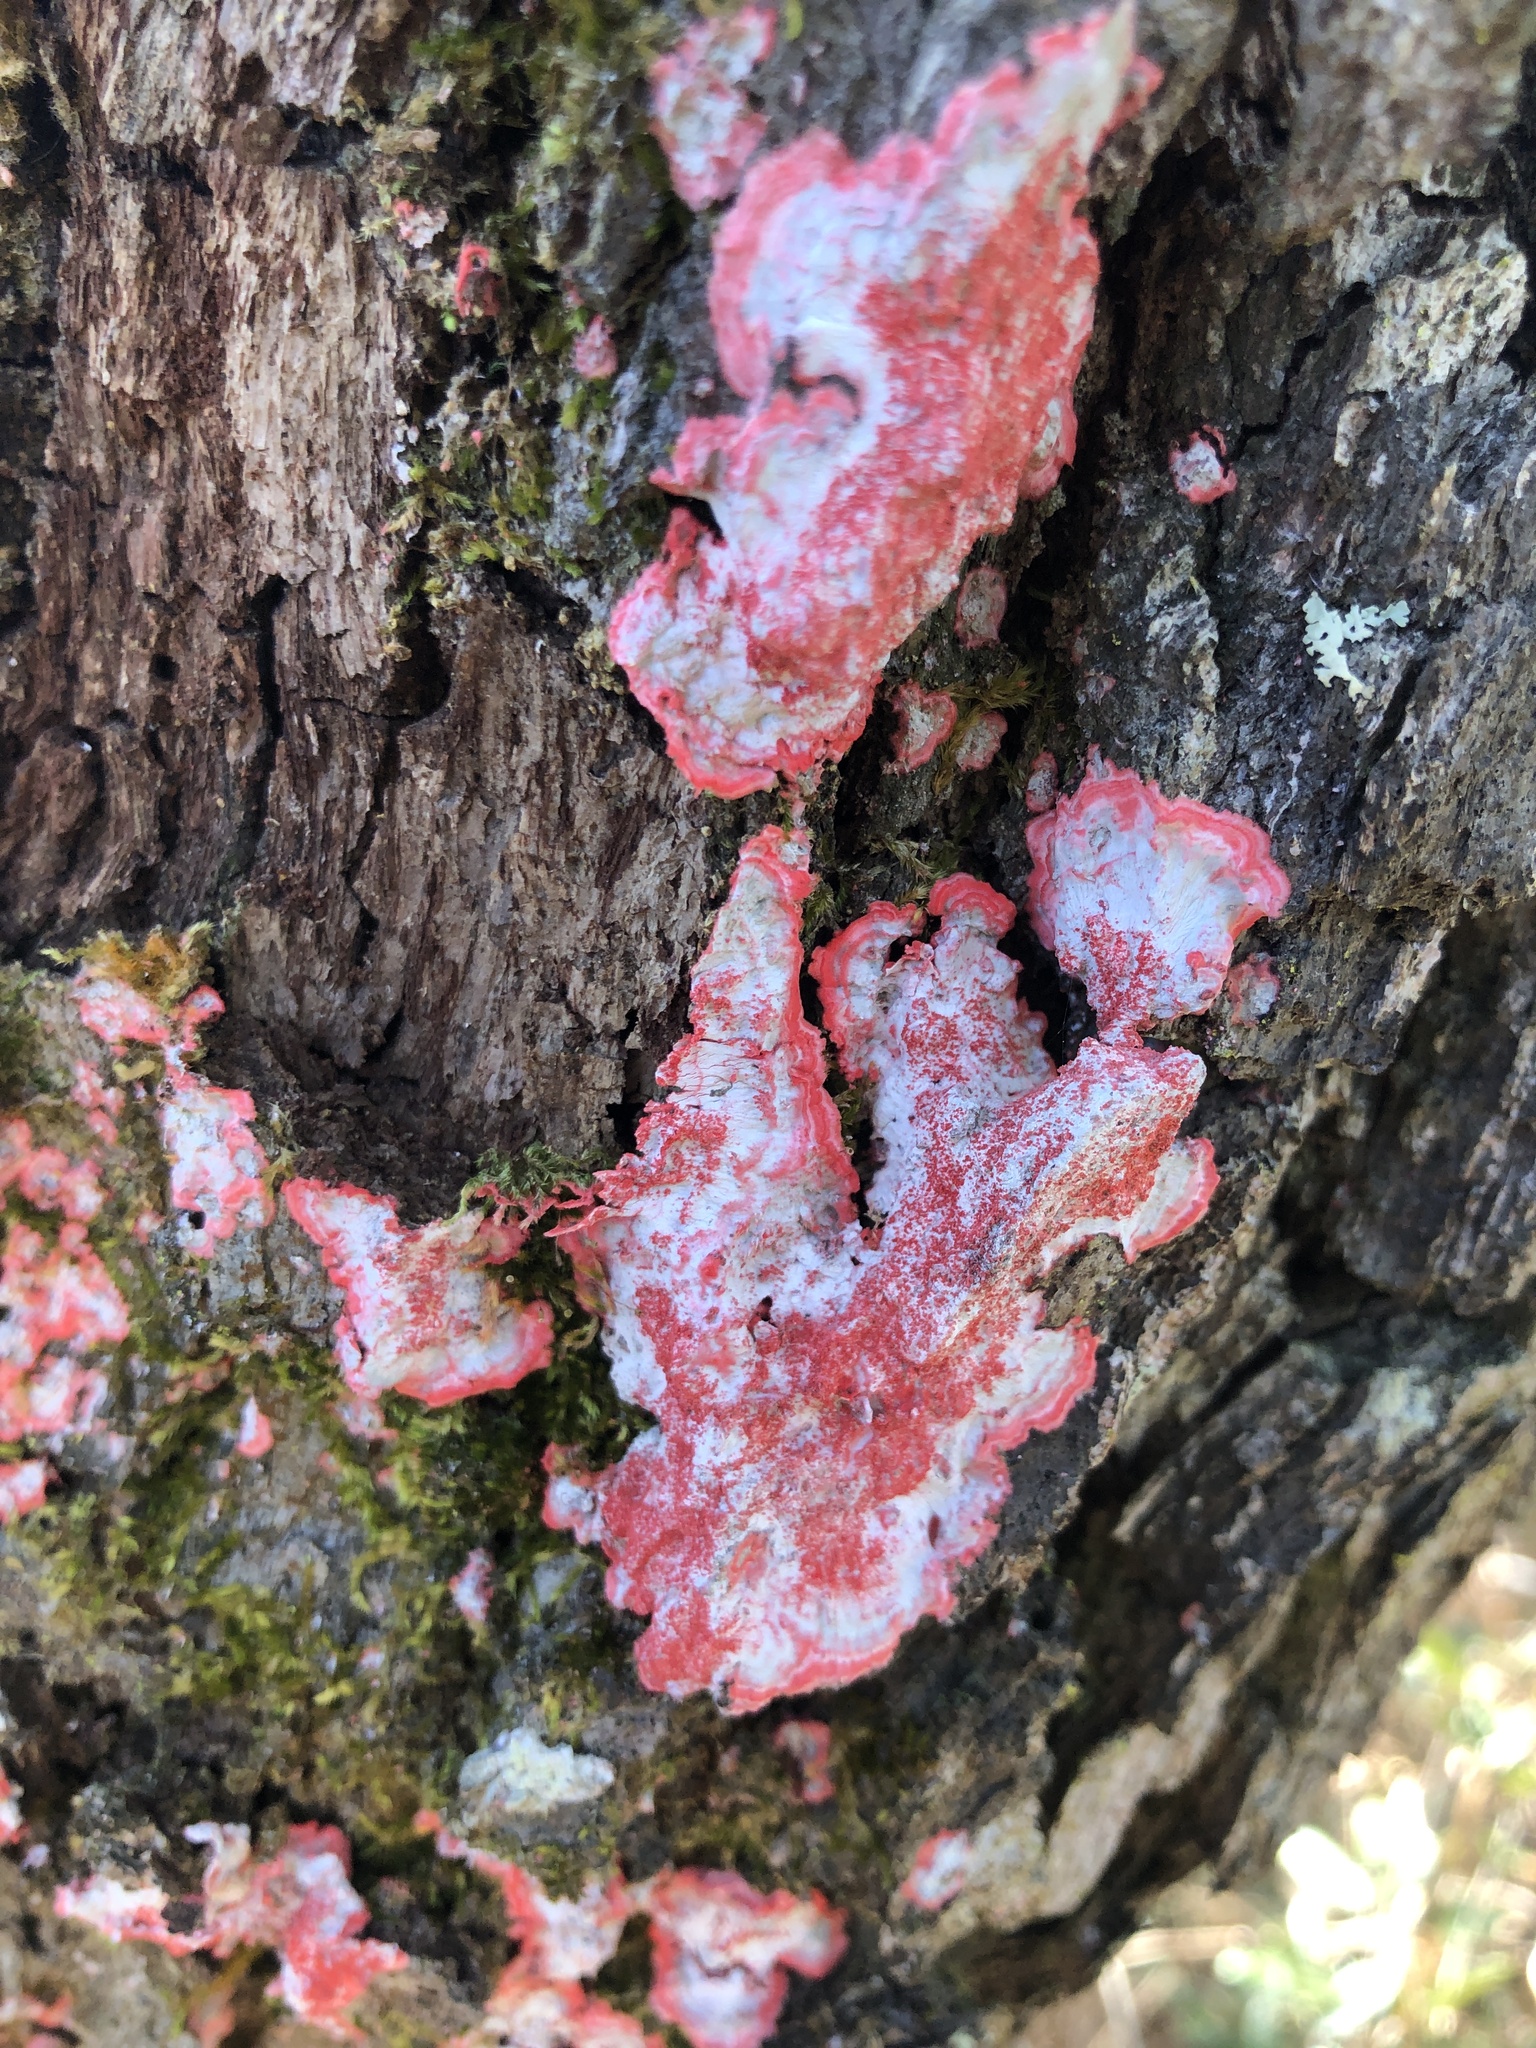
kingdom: Fungi
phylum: Ascomycota
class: Arthoniomycetes
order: Arthoniales
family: Arthoniaceae
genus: Herpothallon
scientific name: Herpothallon rubrocinctum
